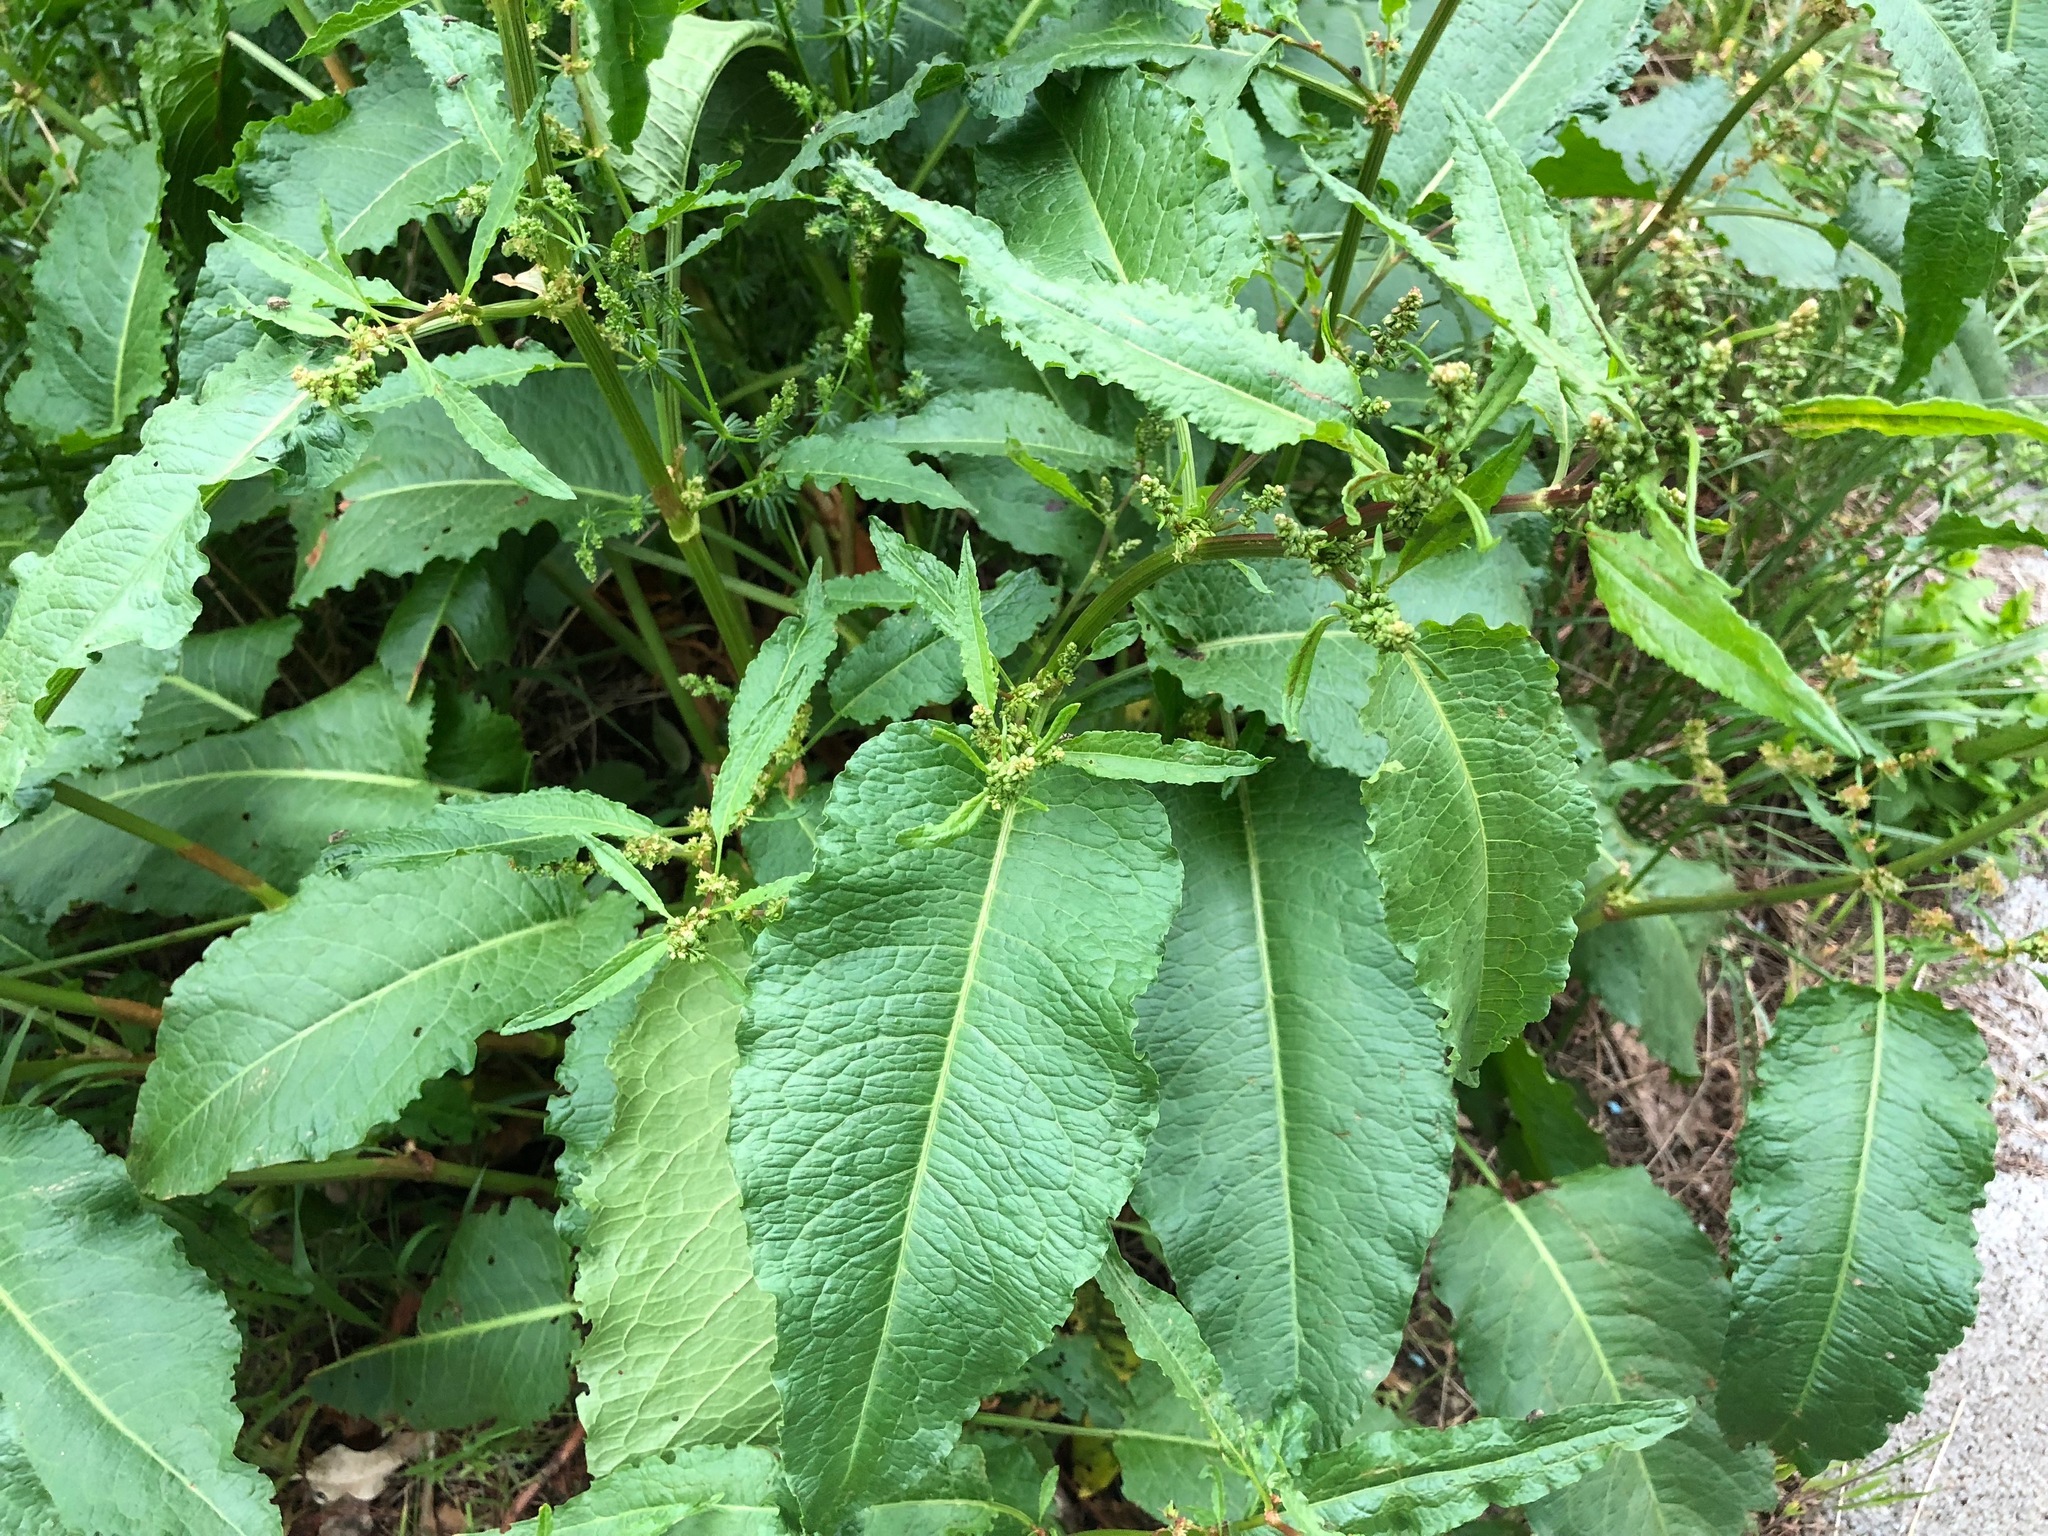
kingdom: Plantae
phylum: Tracheophyta
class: Magnoliopsida
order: Caryophyllales
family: Polygonaceae
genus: Rumex
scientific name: Rumex obtusifolius
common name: Bitter dock
